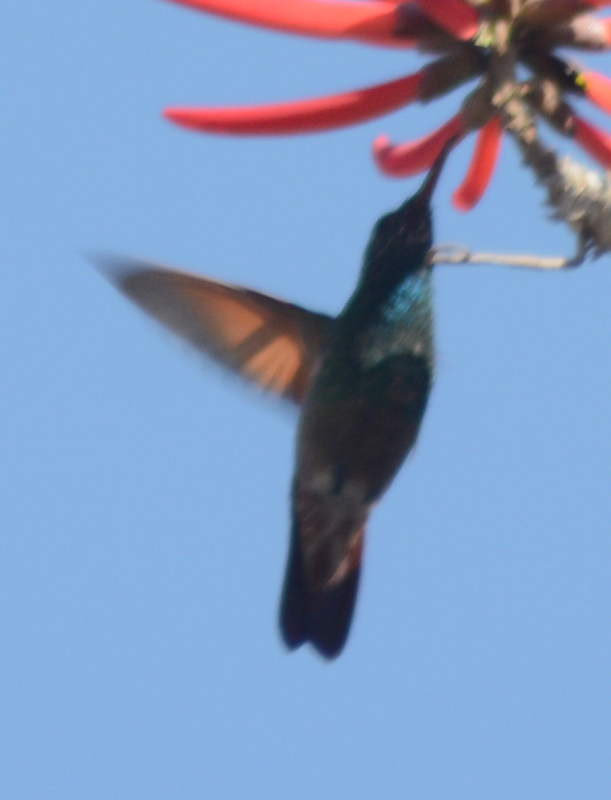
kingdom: Animalia
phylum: Chordata
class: Aves
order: Apodiformes
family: Trochilidae
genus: Saucerottia
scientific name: Saucerottia beryllina
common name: Berylline hummingbird
